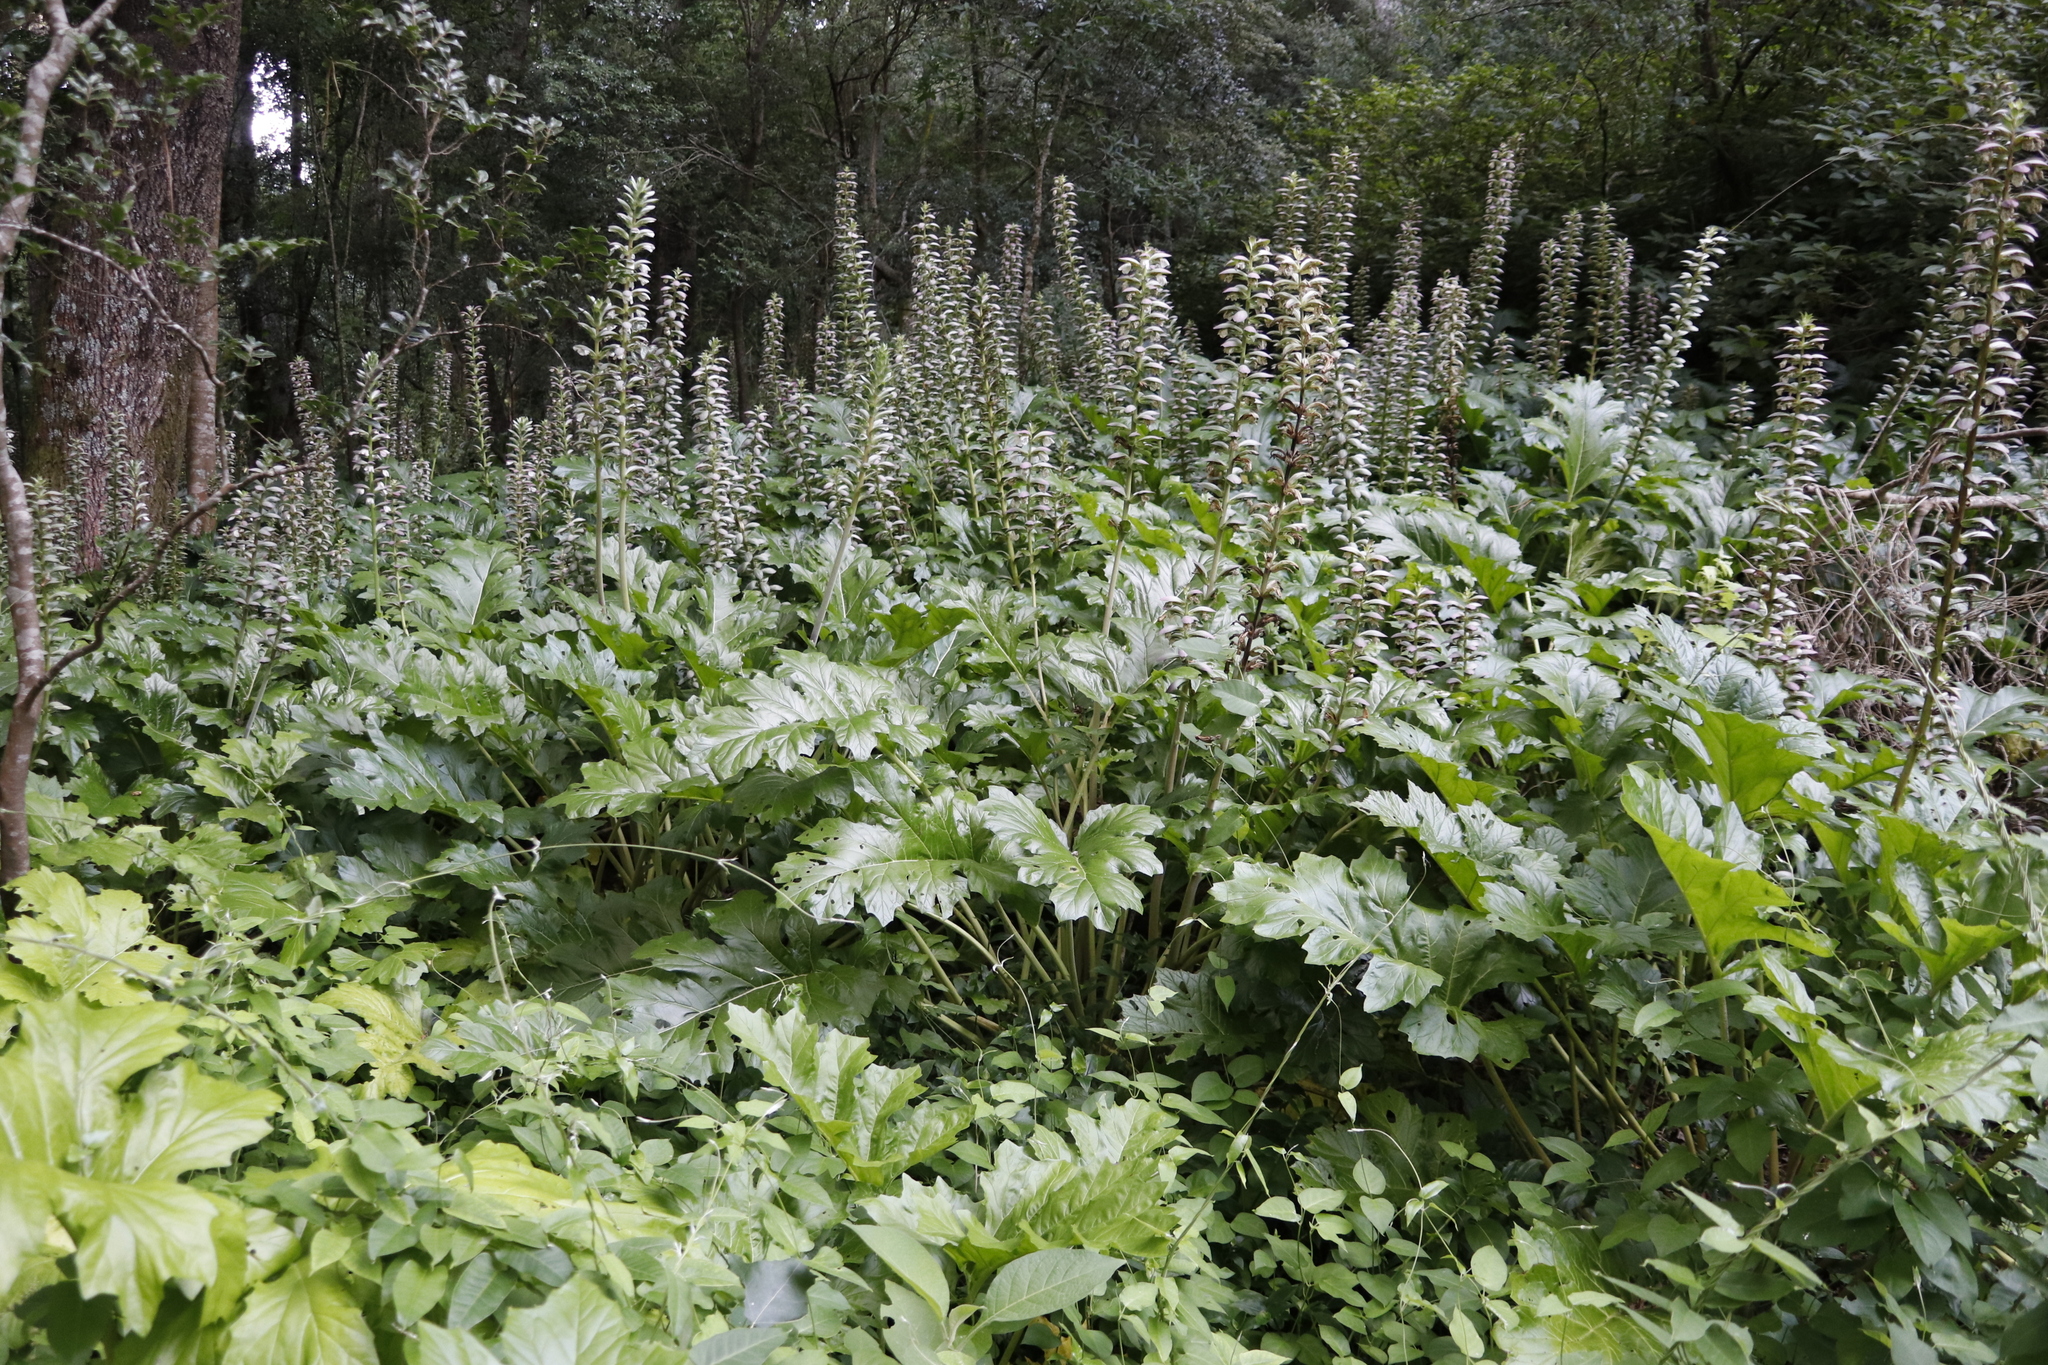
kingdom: Plantae
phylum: Tracheophyta
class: Magnoliopsida
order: Lamiales
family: Acanthaceae
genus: Acanthus
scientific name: Acanthus mollis
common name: Bear's-breech
